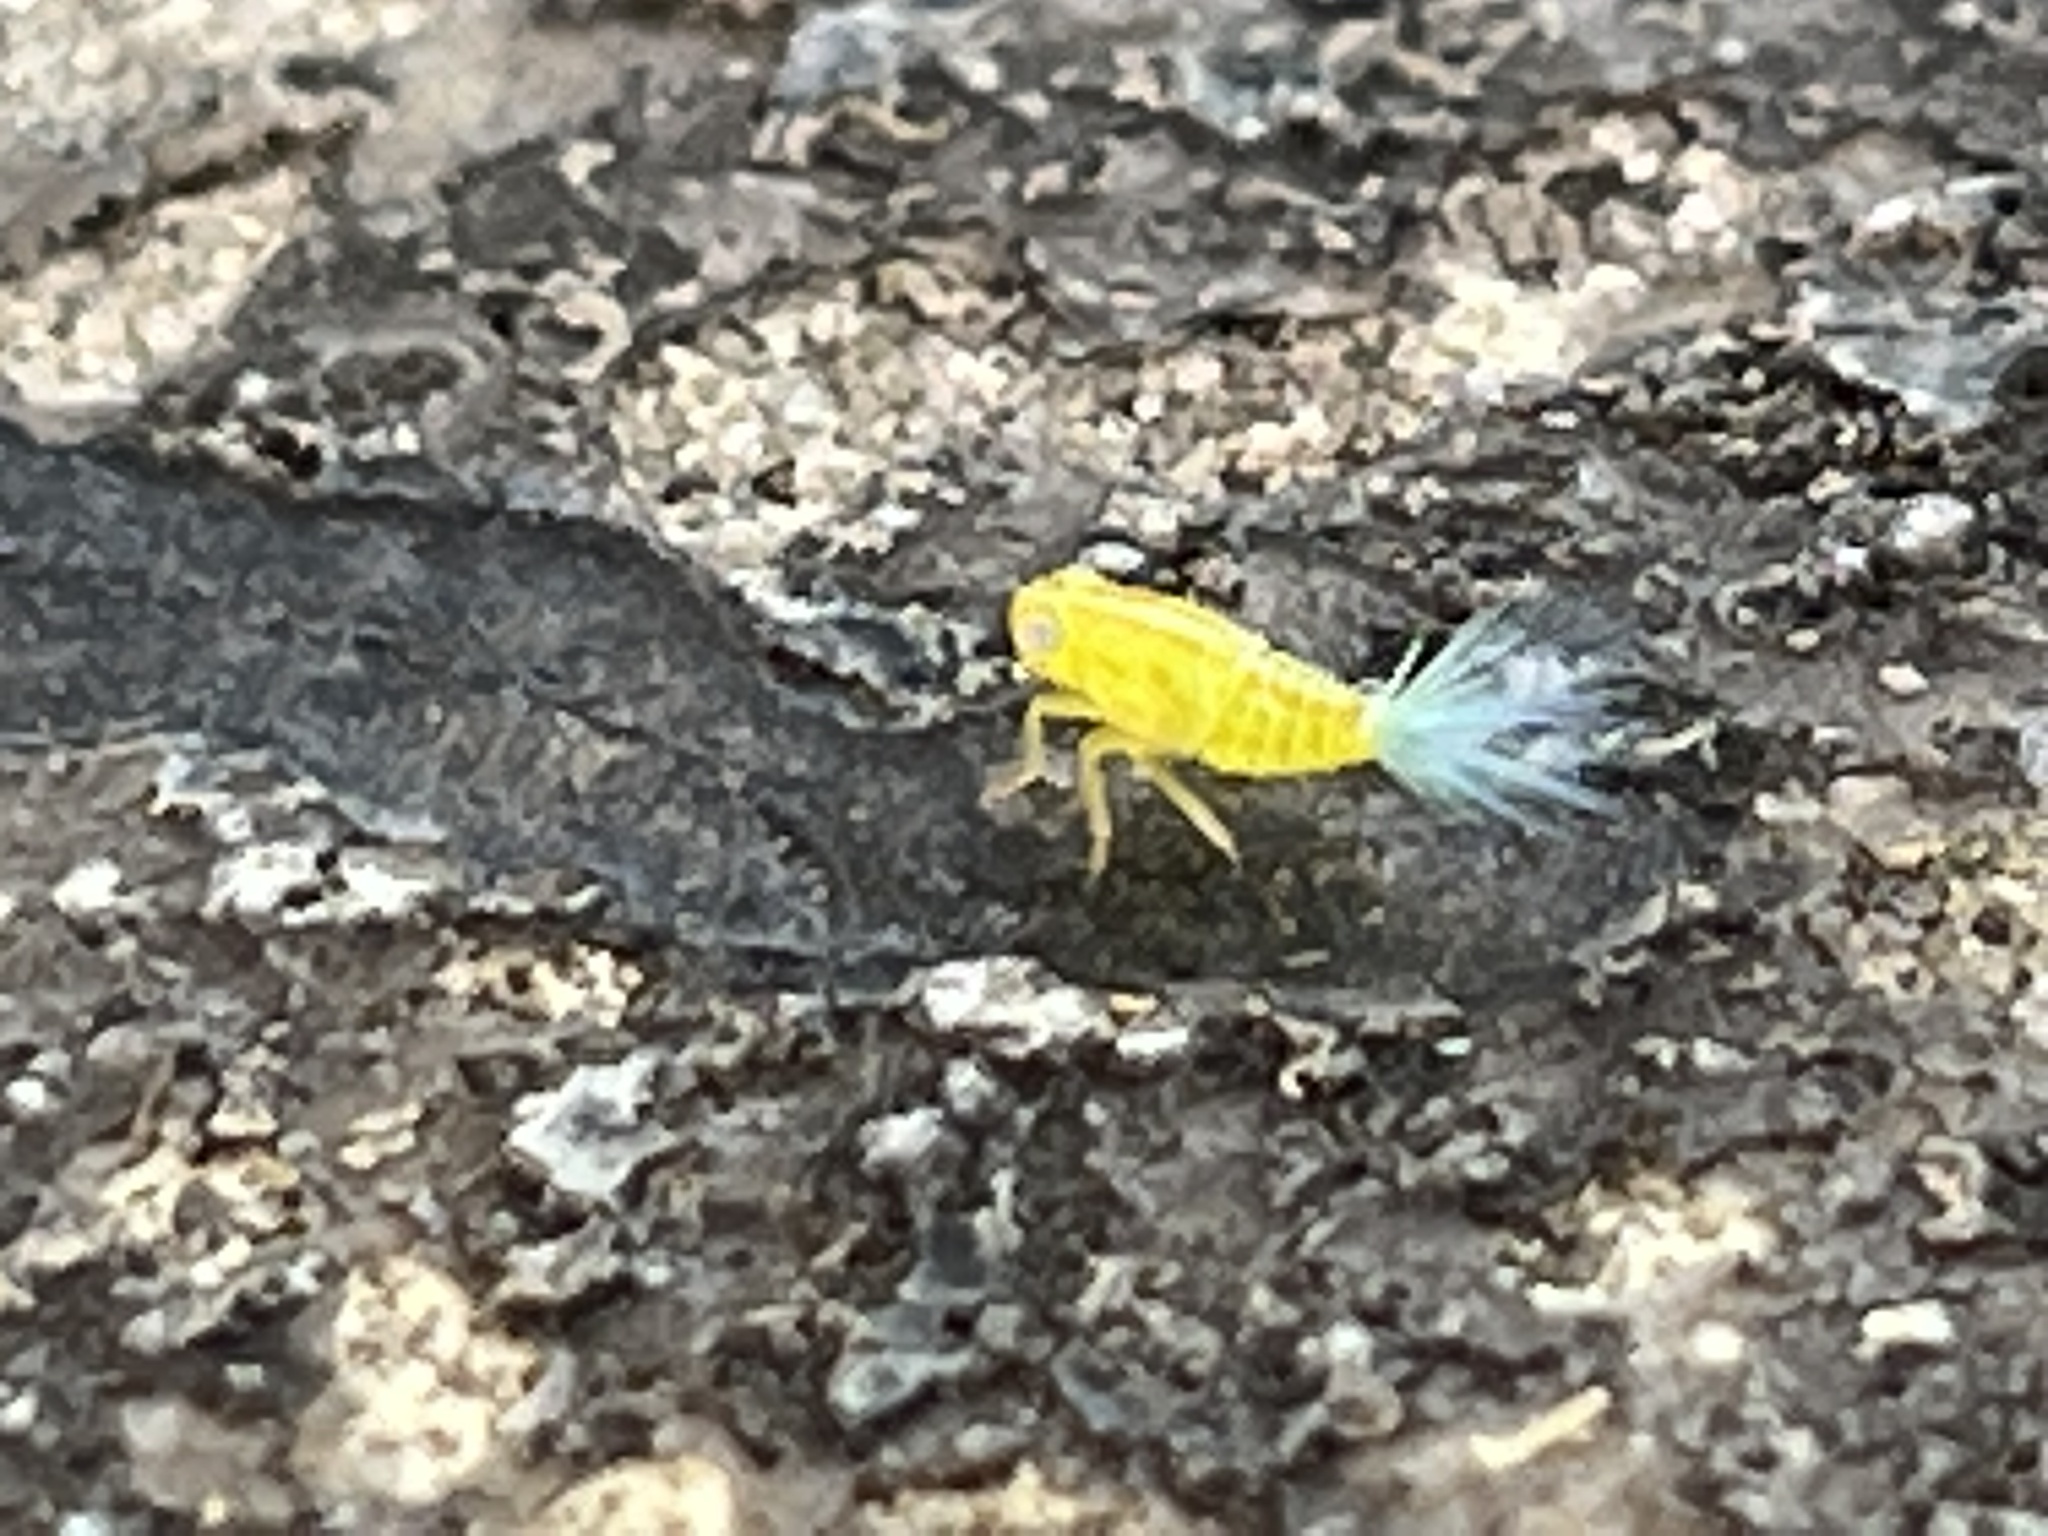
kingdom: Animalia
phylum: Arthropoda
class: Insecta
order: Hemiptera
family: Issidae
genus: Aplos
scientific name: Aplos simplex
